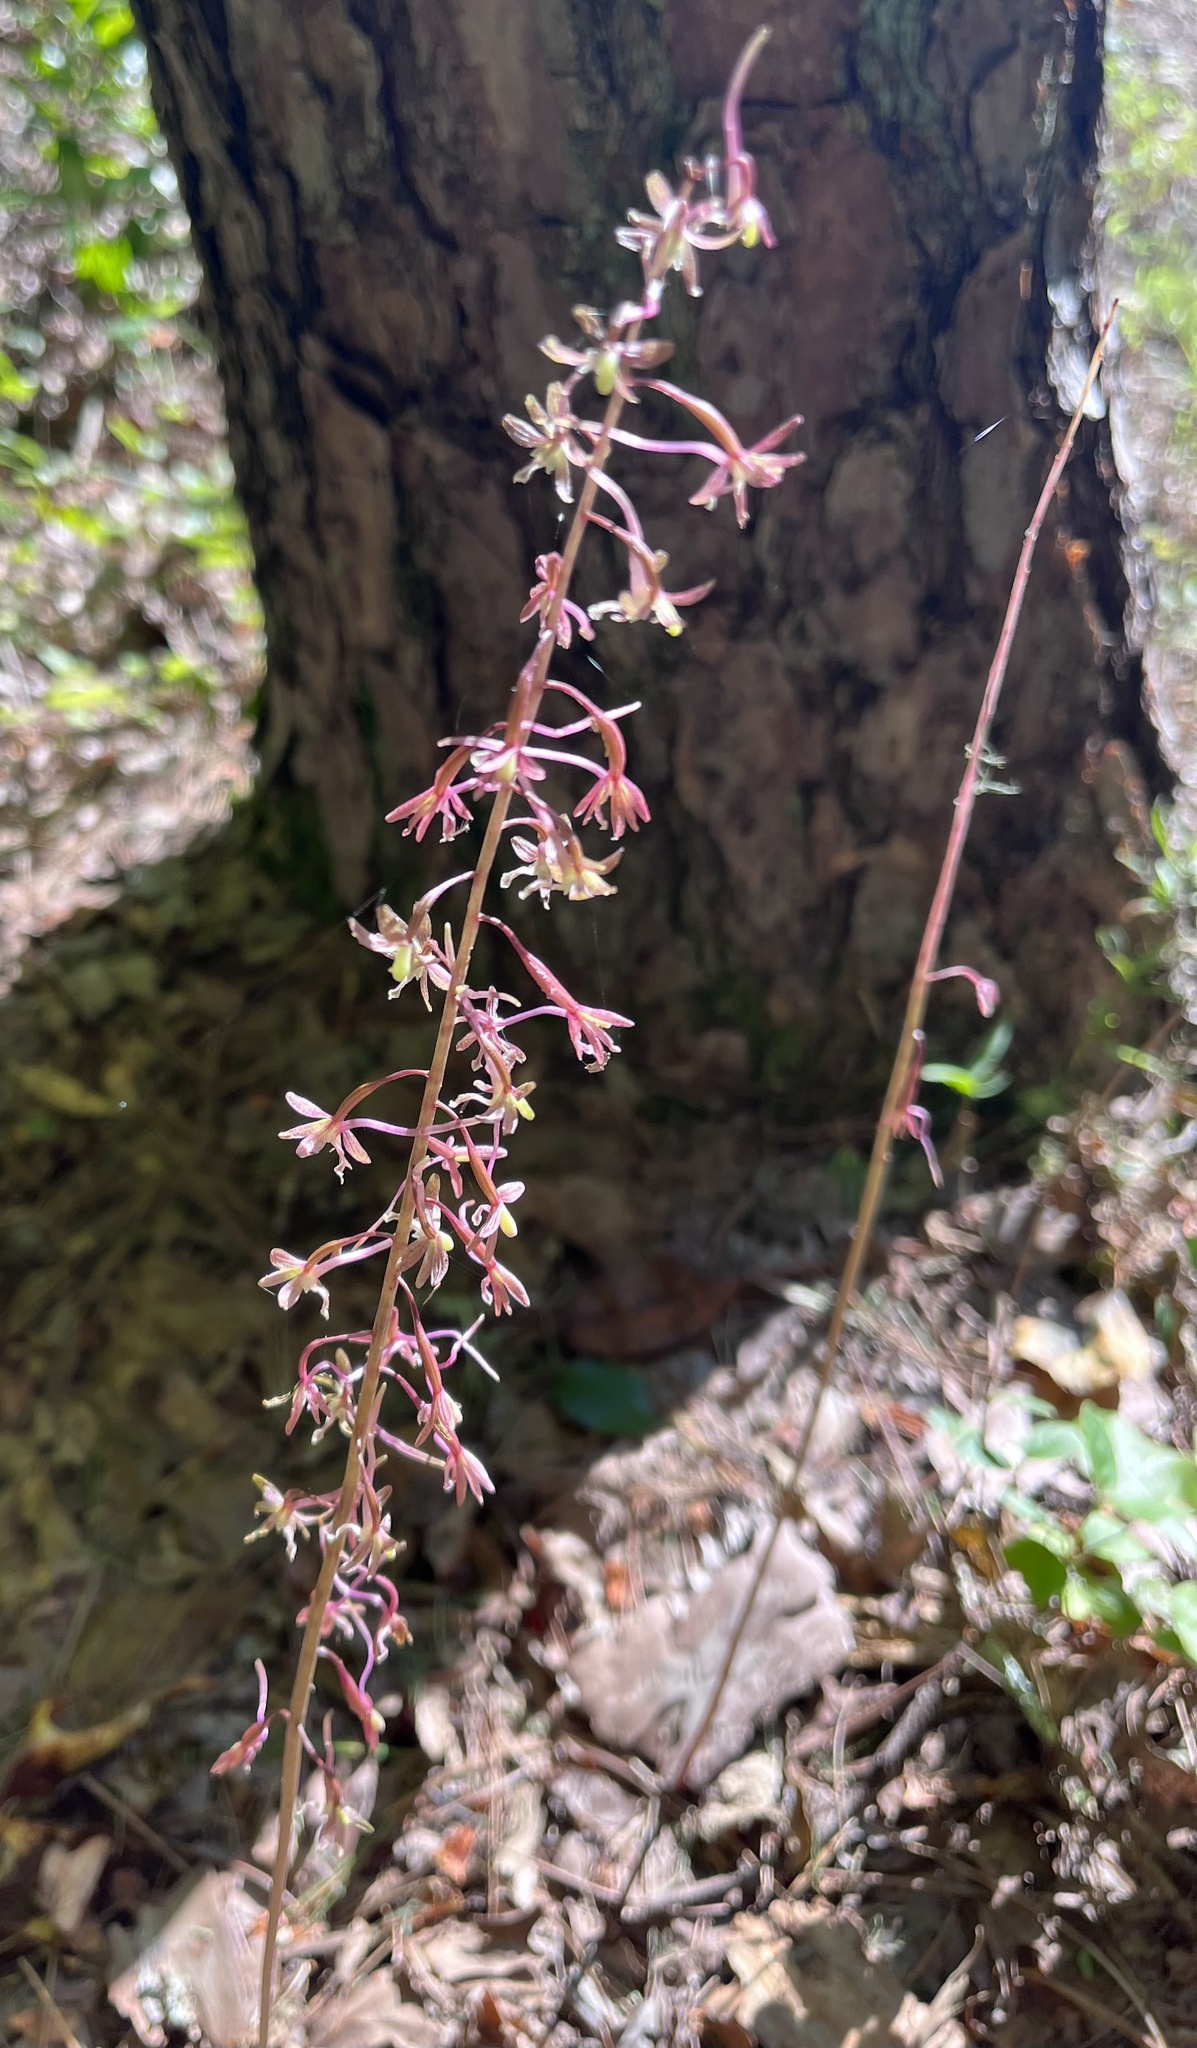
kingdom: Plantae
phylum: Tracheophyta
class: Liliopsida
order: Asparagales
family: Orchidaceae
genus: Tipularia
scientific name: Tipularia discolor
